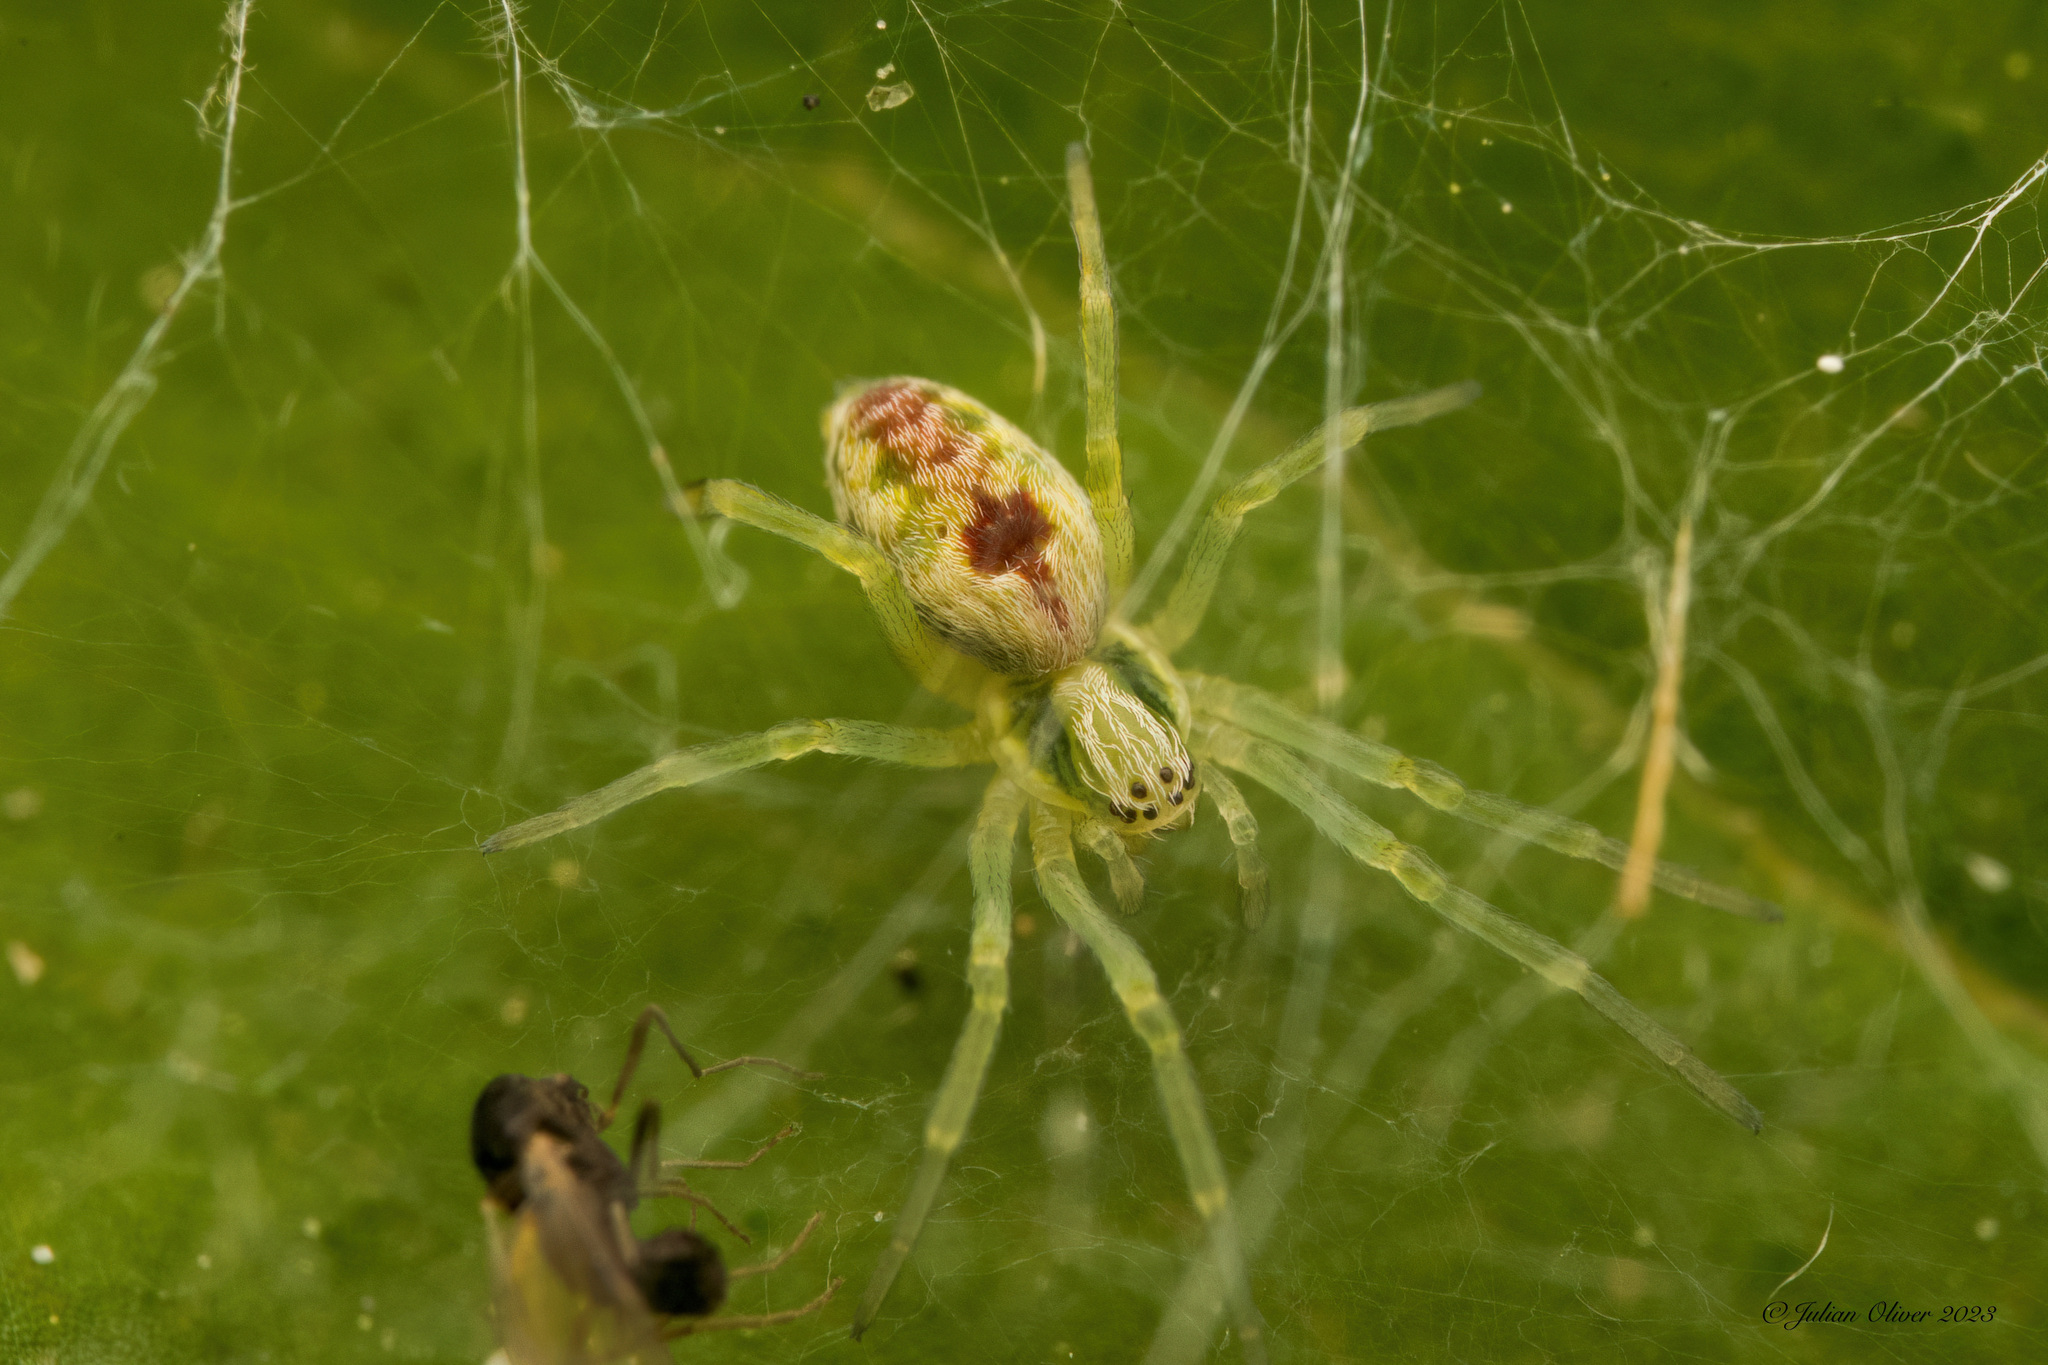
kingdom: Animalia
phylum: Arthropoda
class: Arachnida
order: Araneae
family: Dictynidae
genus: Nigma
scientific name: Nigma puella
